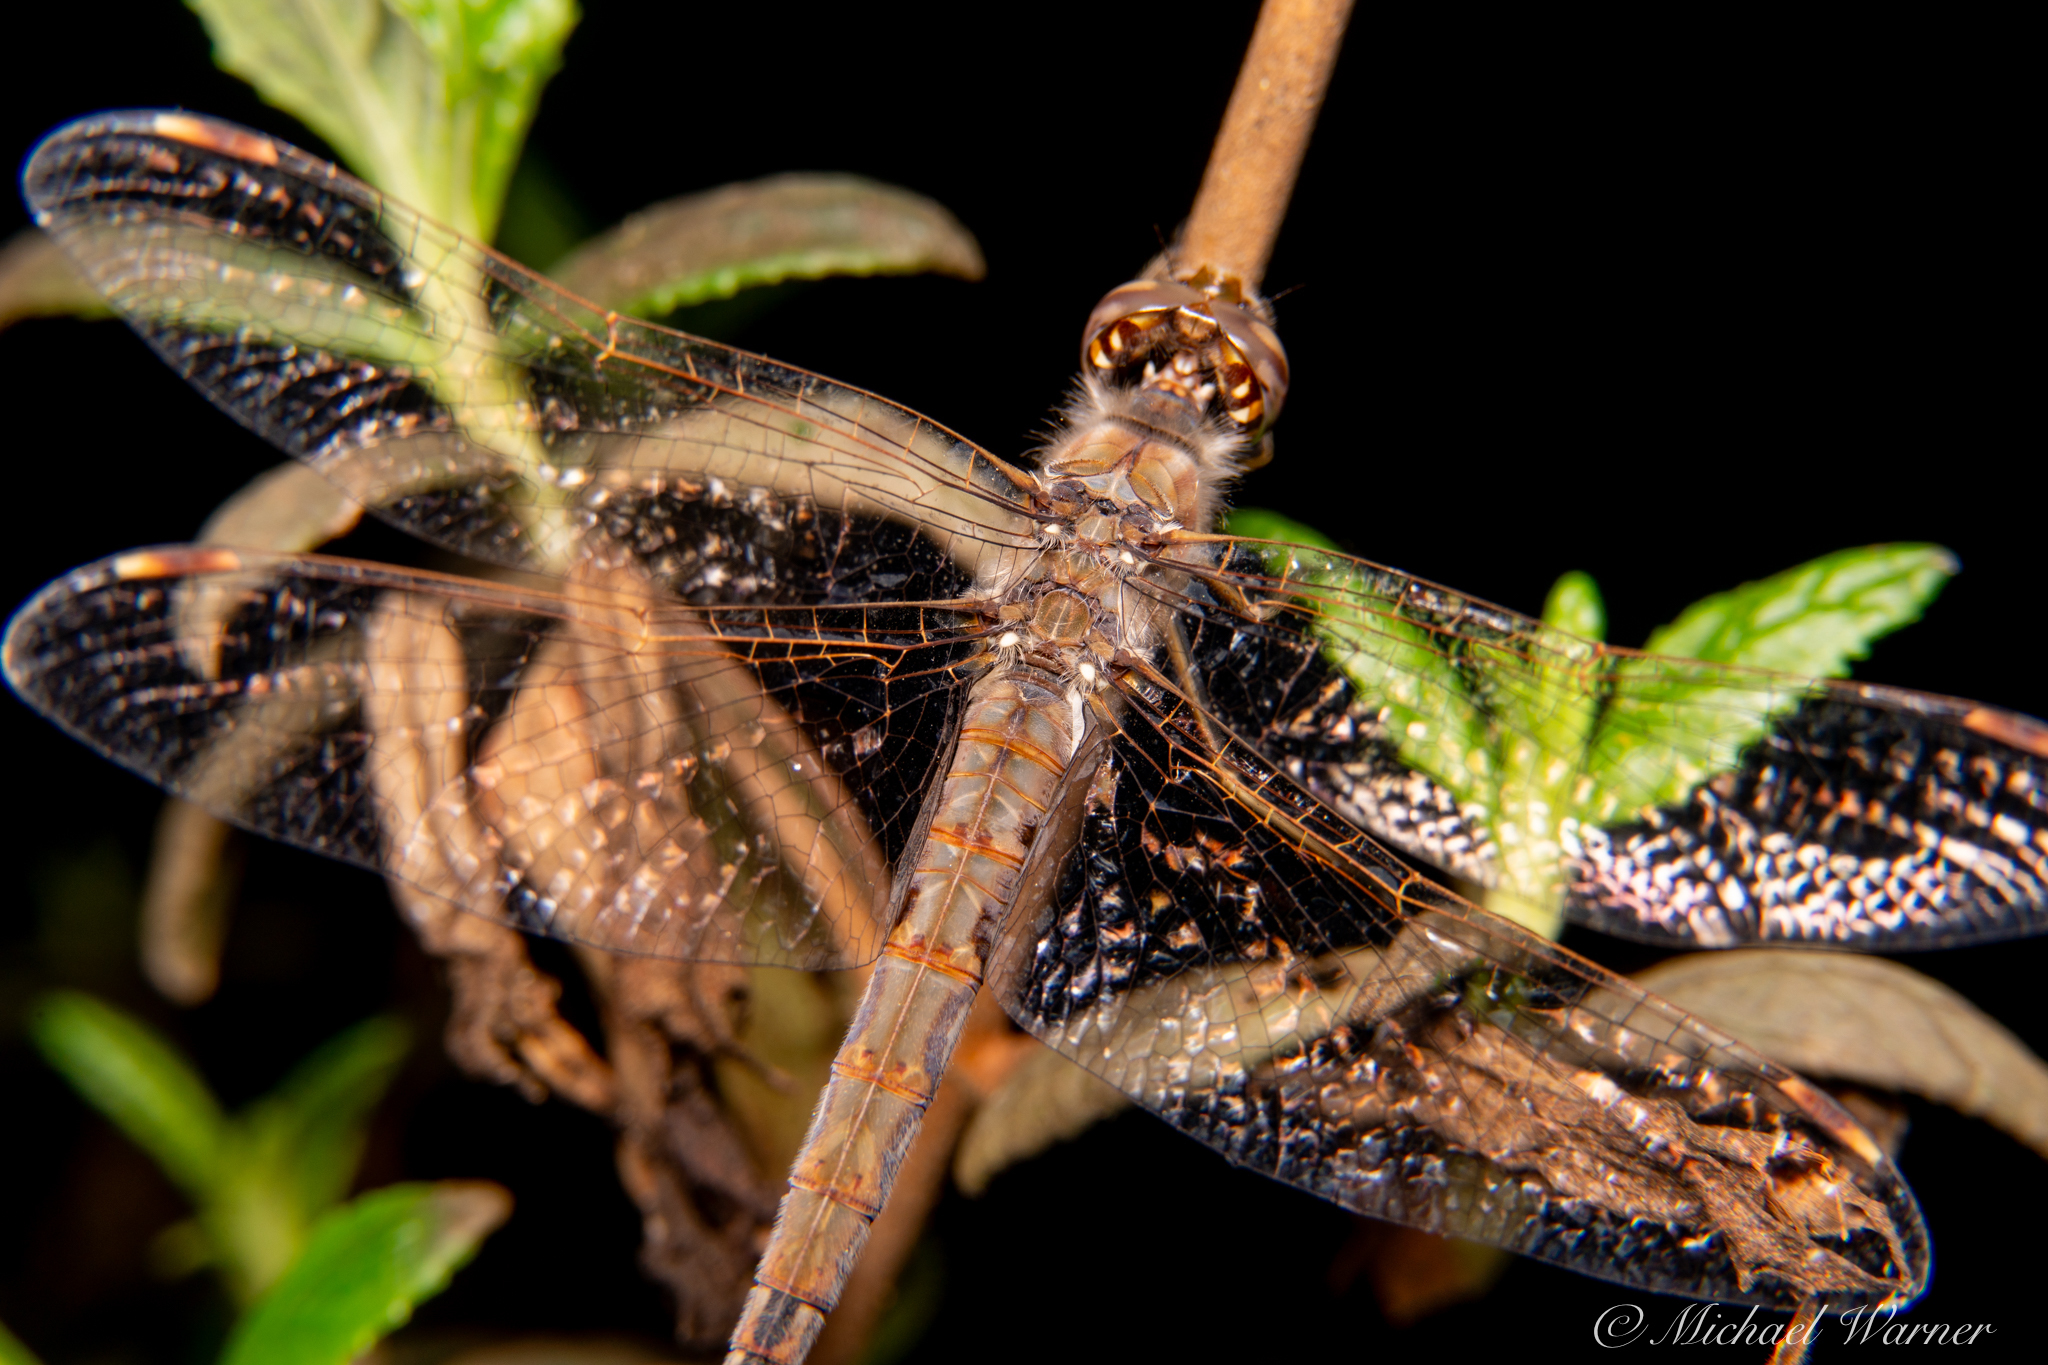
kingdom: Animalia
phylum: Arthropoda
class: Insecta
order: Odonata
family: Libellulidae
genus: Sympetrum
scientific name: Sympetrum corruptum
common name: Variegated meadowhawk
